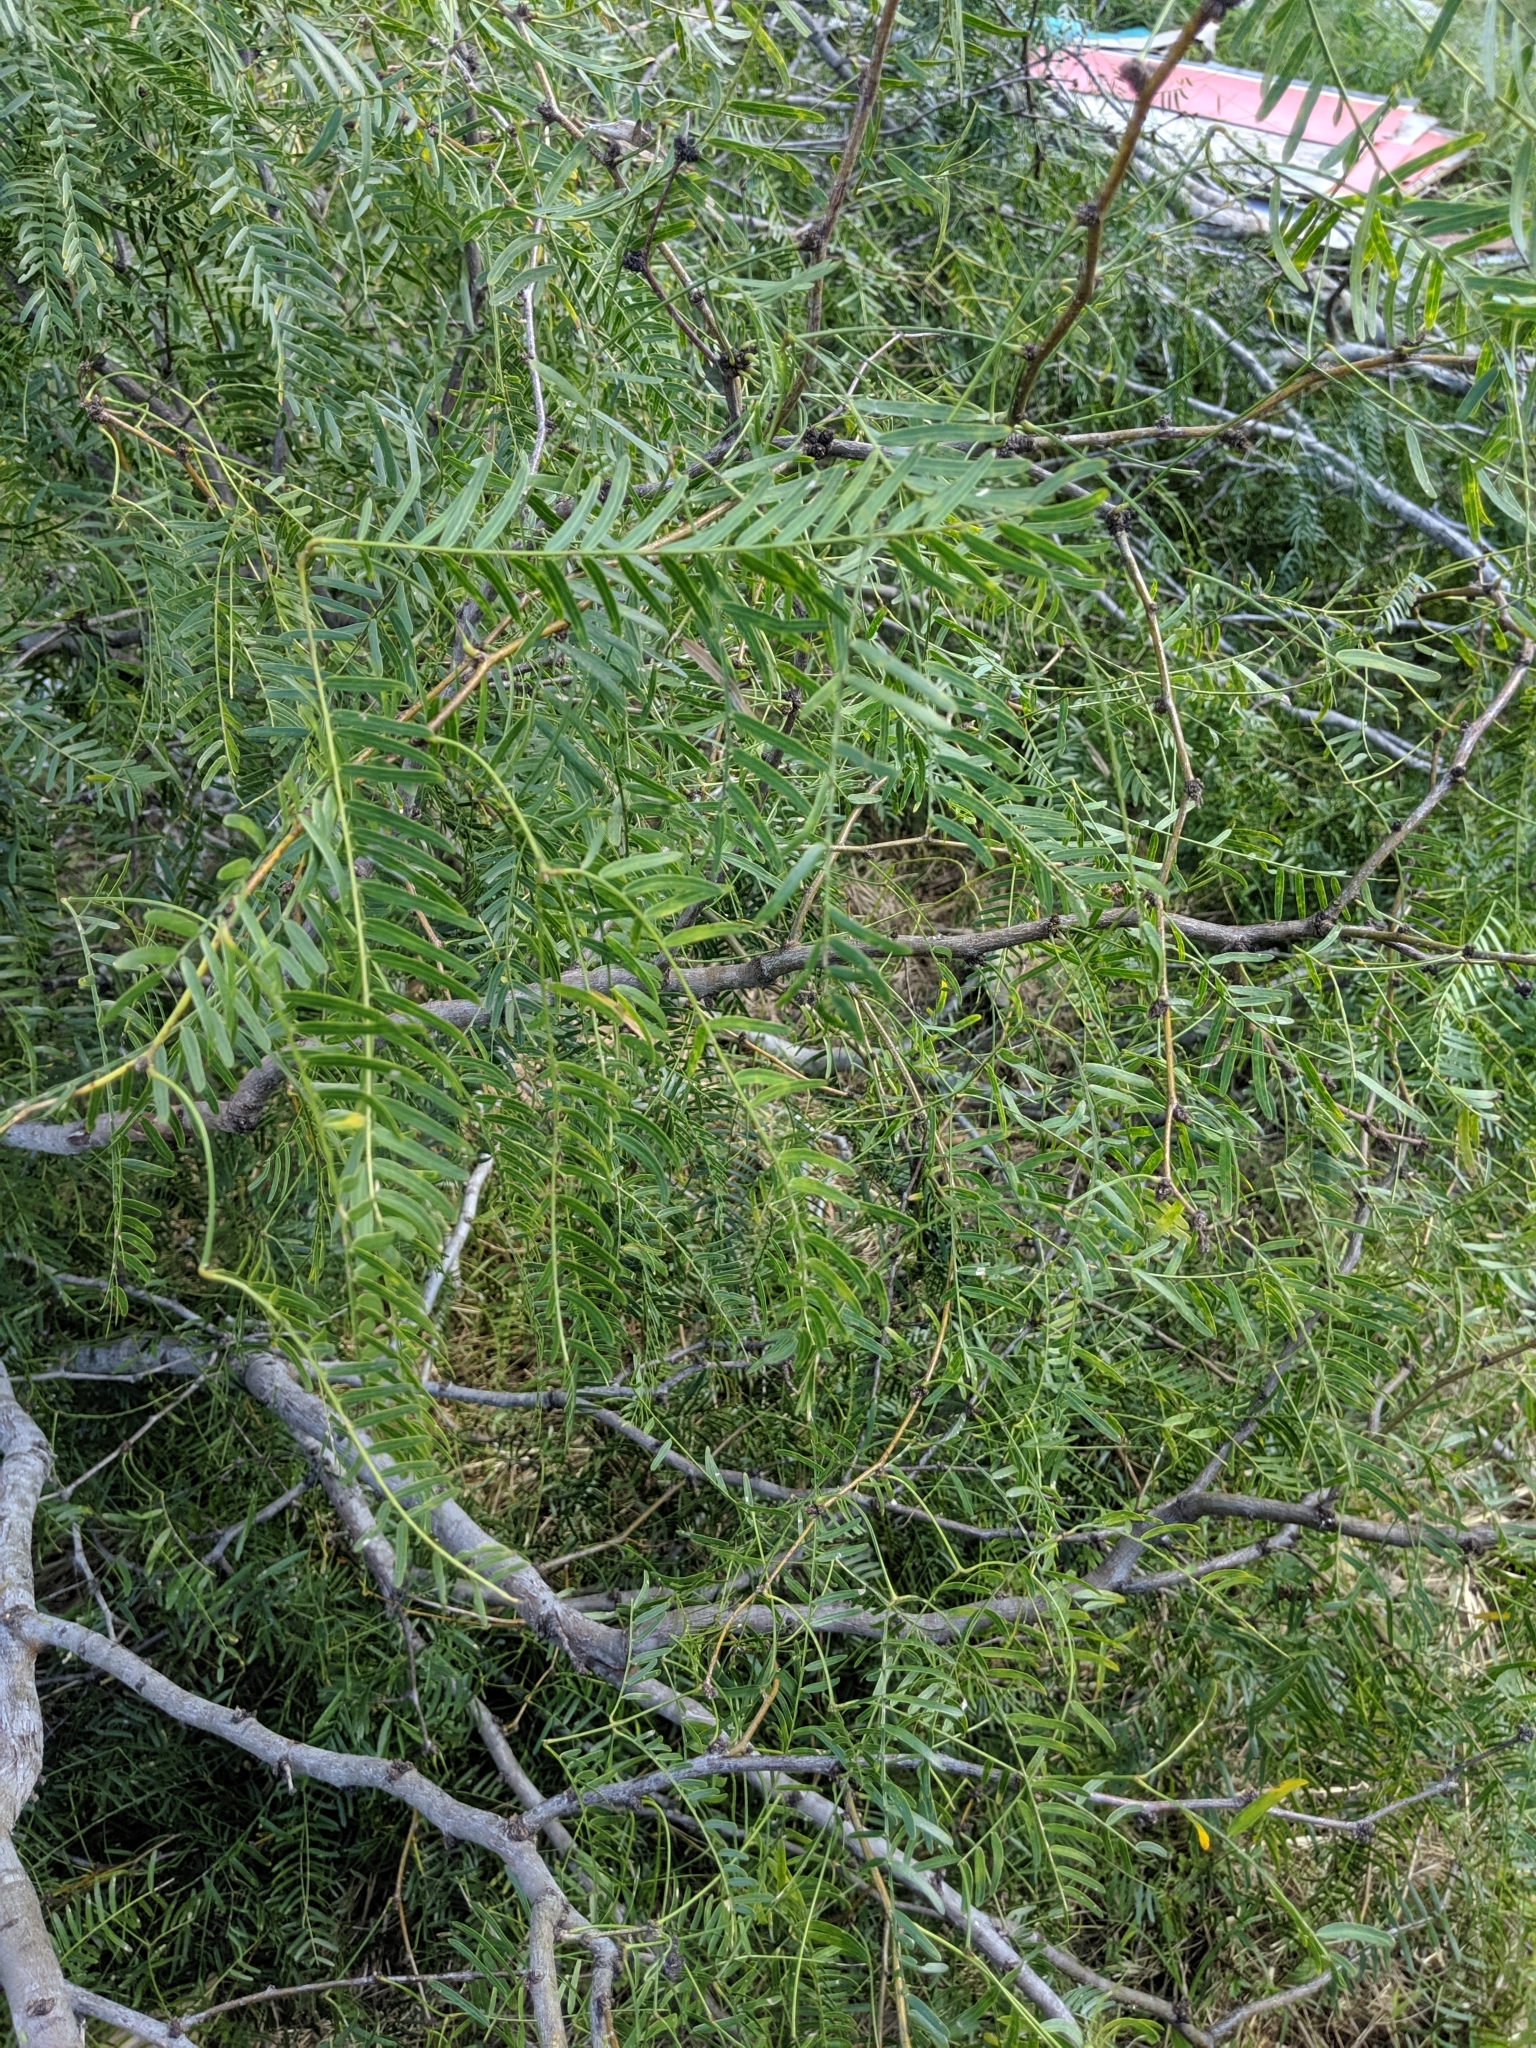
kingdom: Plantae
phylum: Tracheophyta
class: Magnoliopsida
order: Fabales
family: Fabaceae
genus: Prosopis
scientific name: Prosopis glandulosa
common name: Honey mesquite
